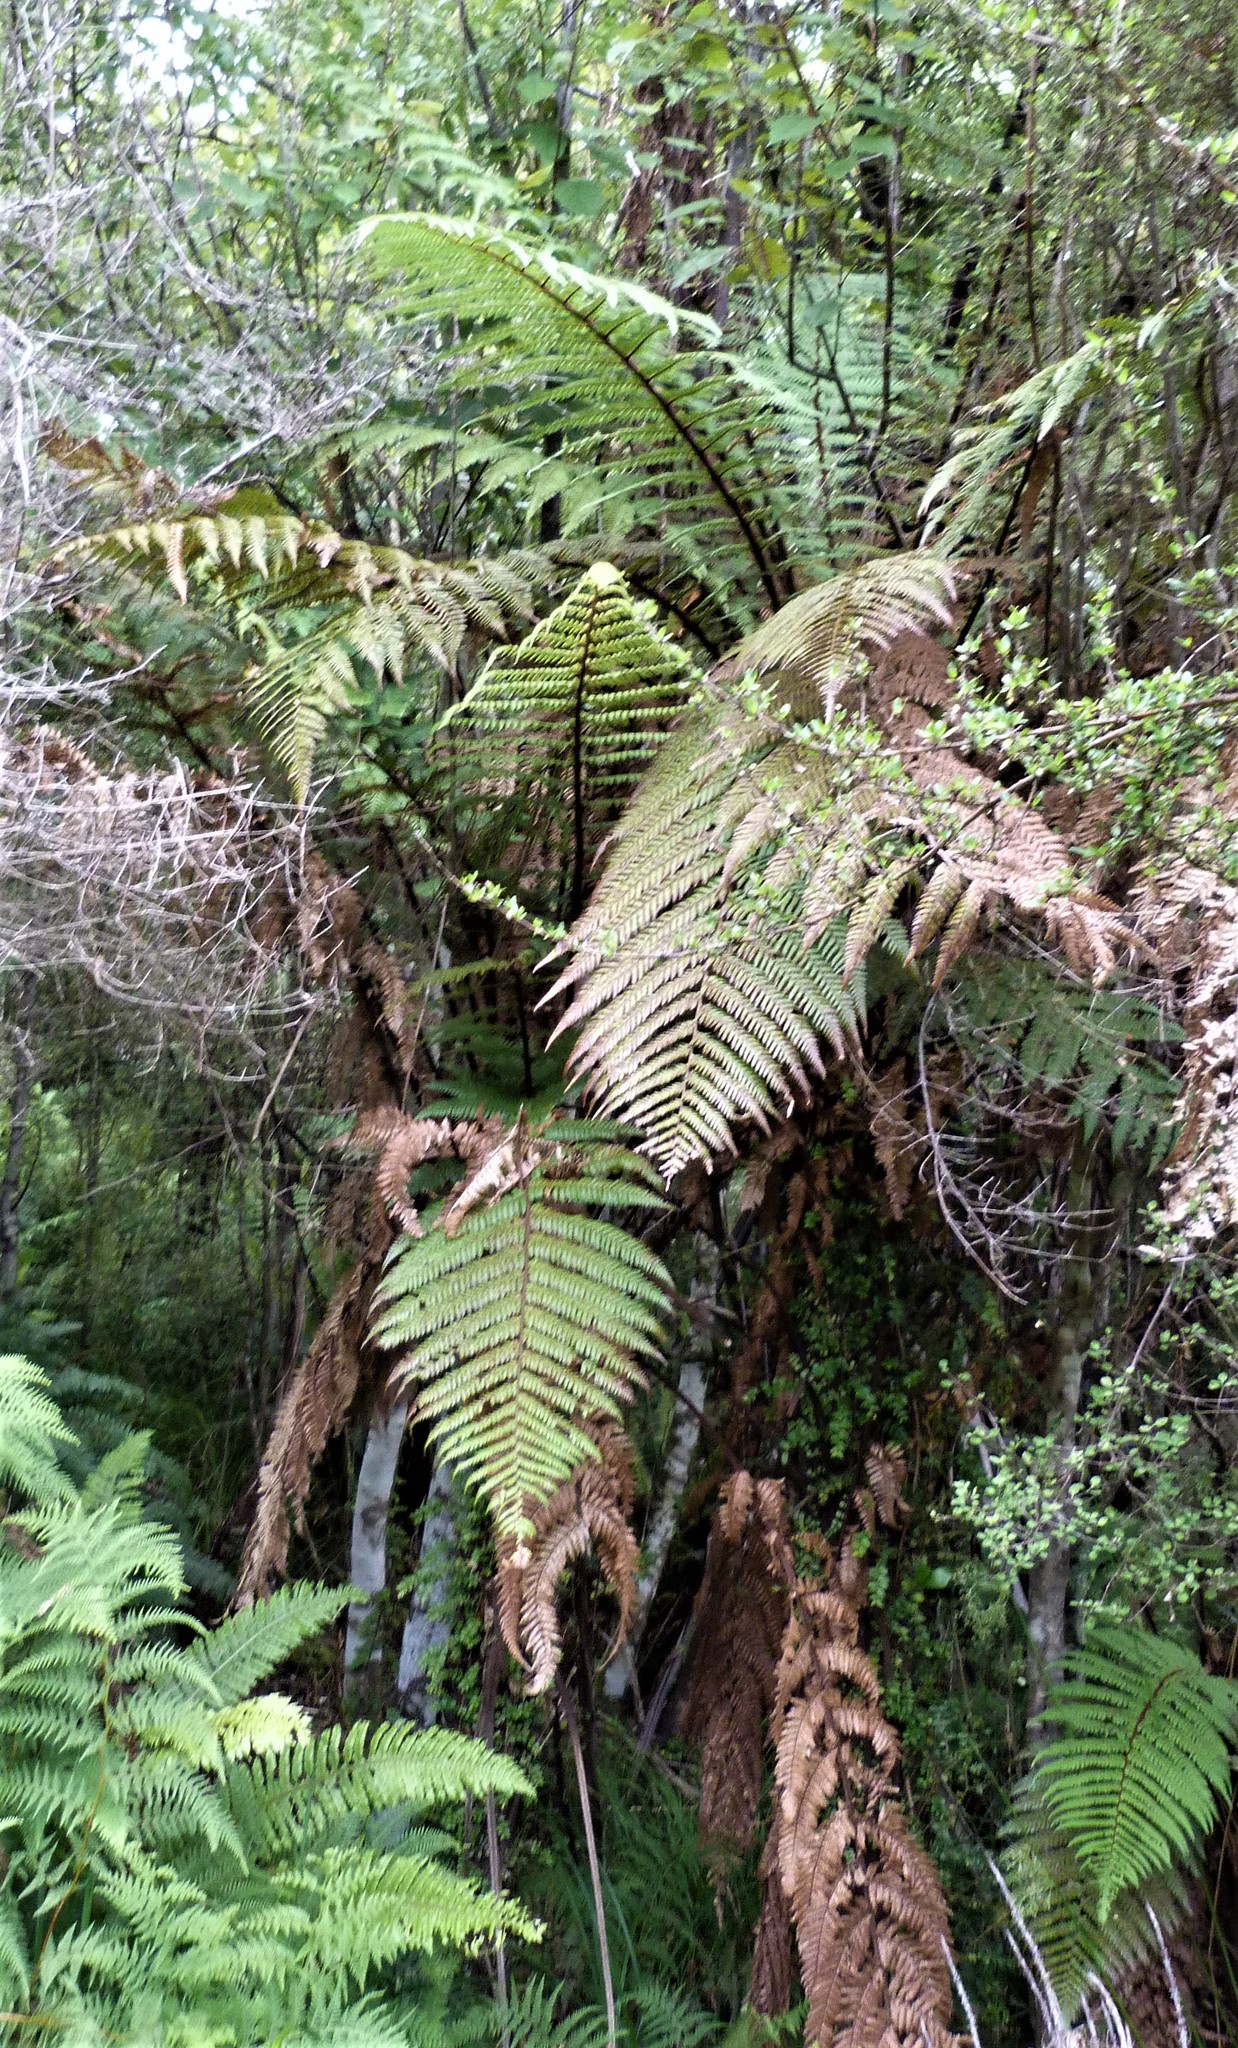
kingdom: Plantae
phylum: Tracheophyta
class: Polypodiopsida
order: Cyatheales
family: Dicksoniaceae
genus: Dicksonia
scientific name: Dicksonia squarrosa
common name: Hard treefern
